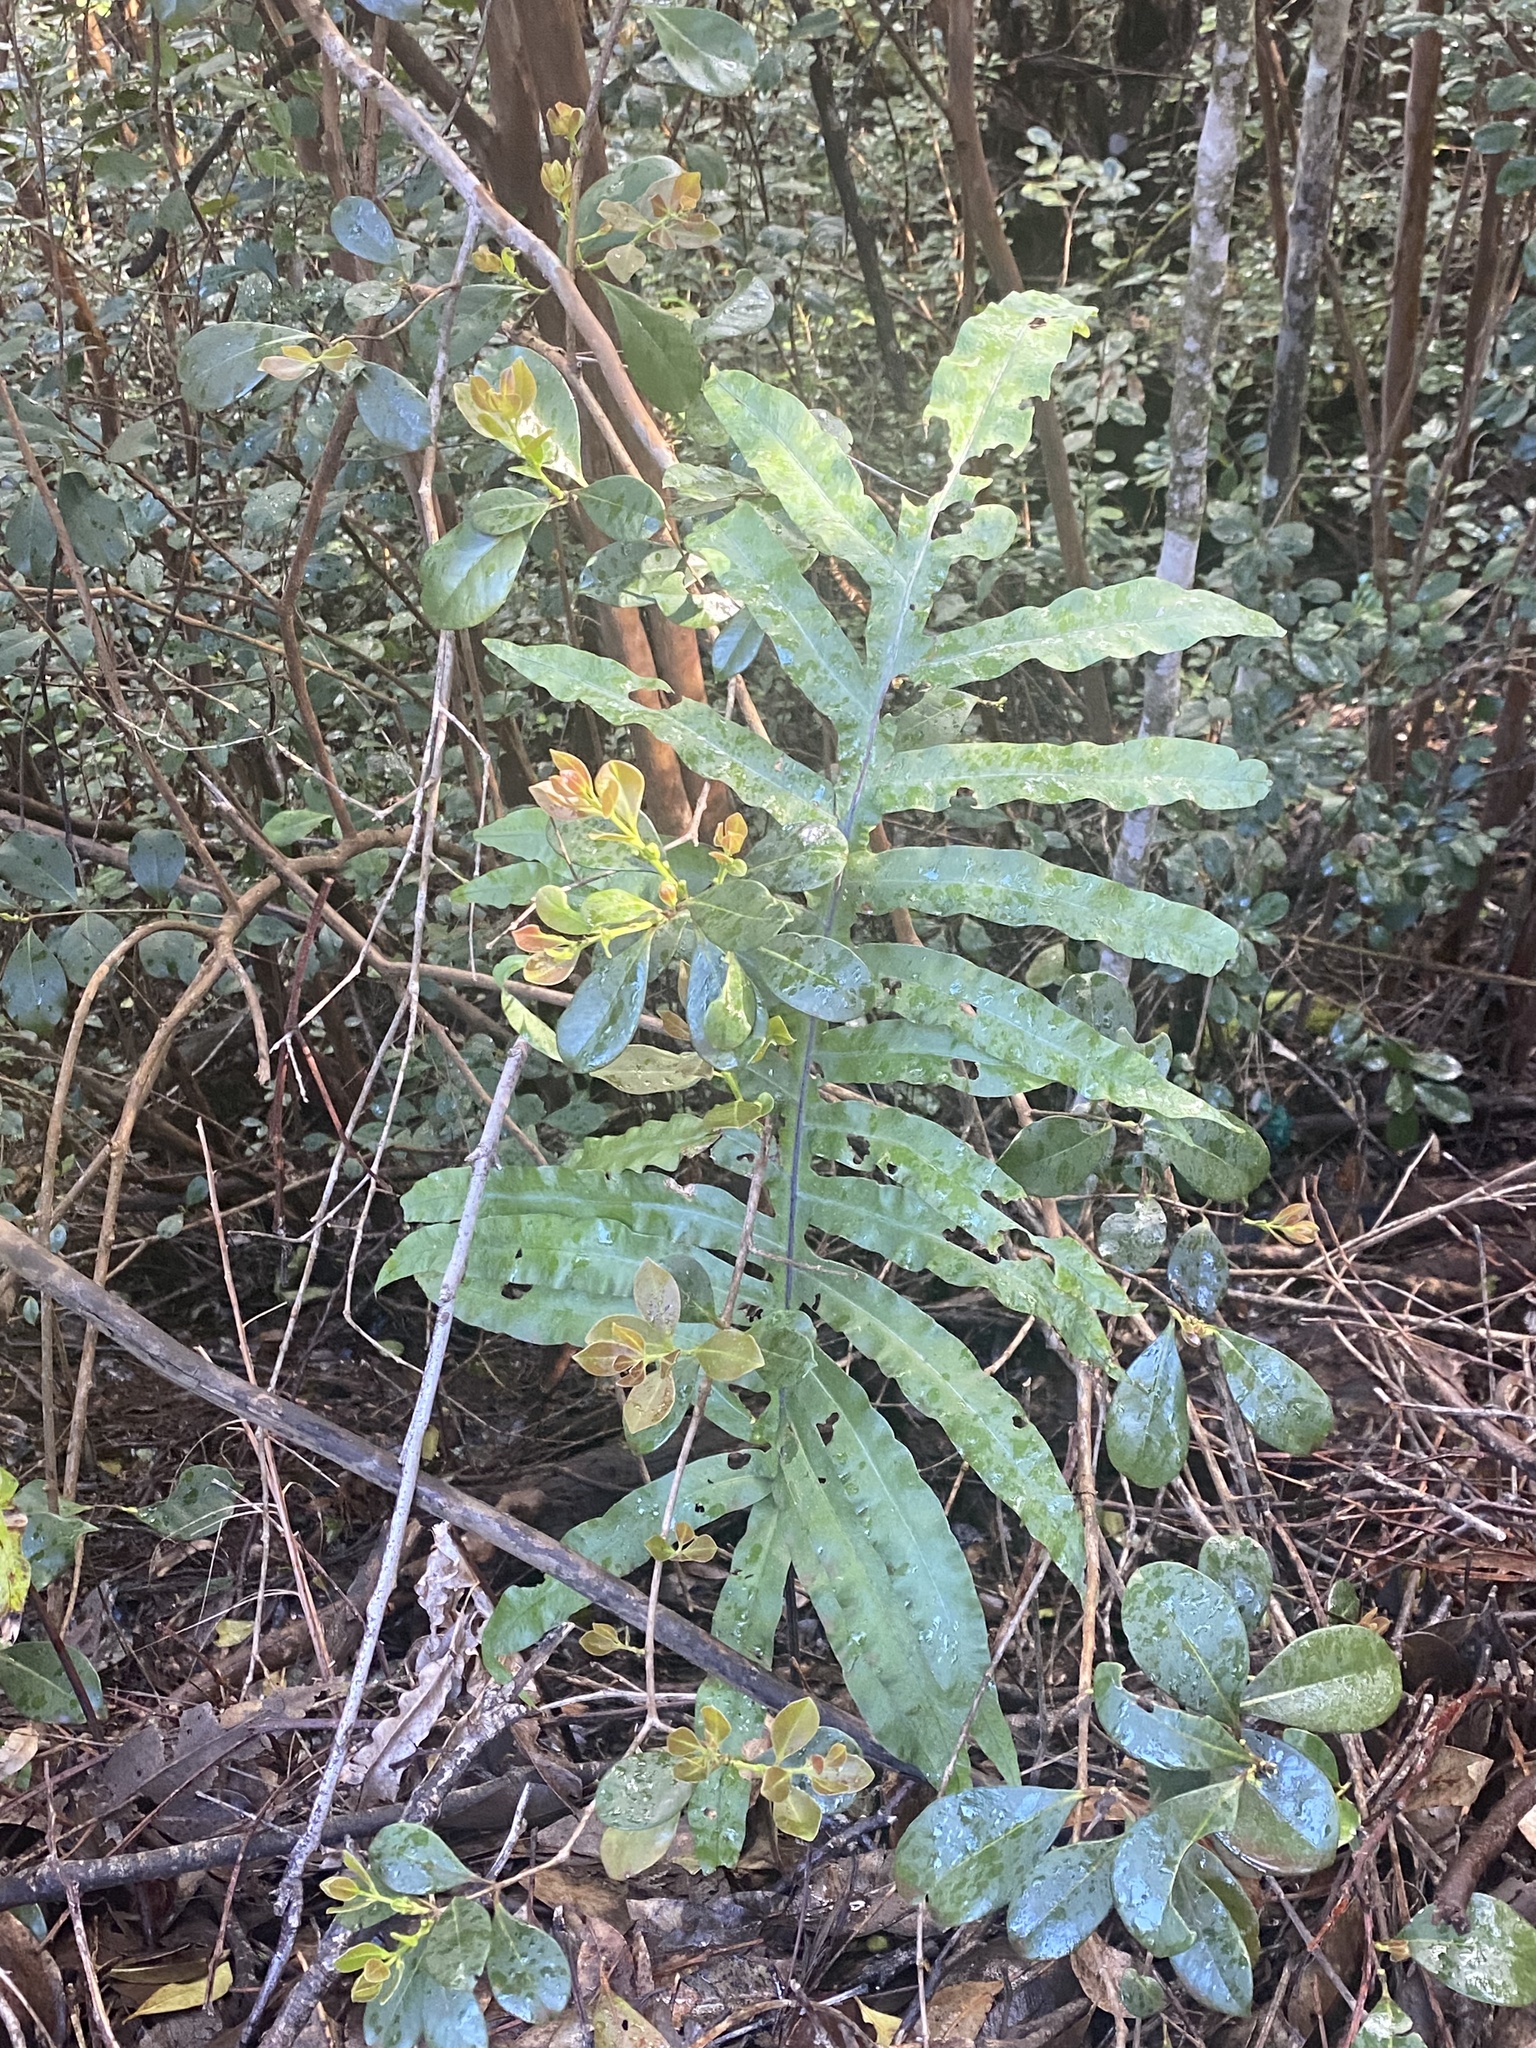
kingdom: Plantae
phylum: Tracheophyta
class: Polypodiopsida
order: Polypodiales
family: Polypodiaceae
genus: Phlebodium
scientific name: Phlebodium aureum
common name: Gold-foot fern
